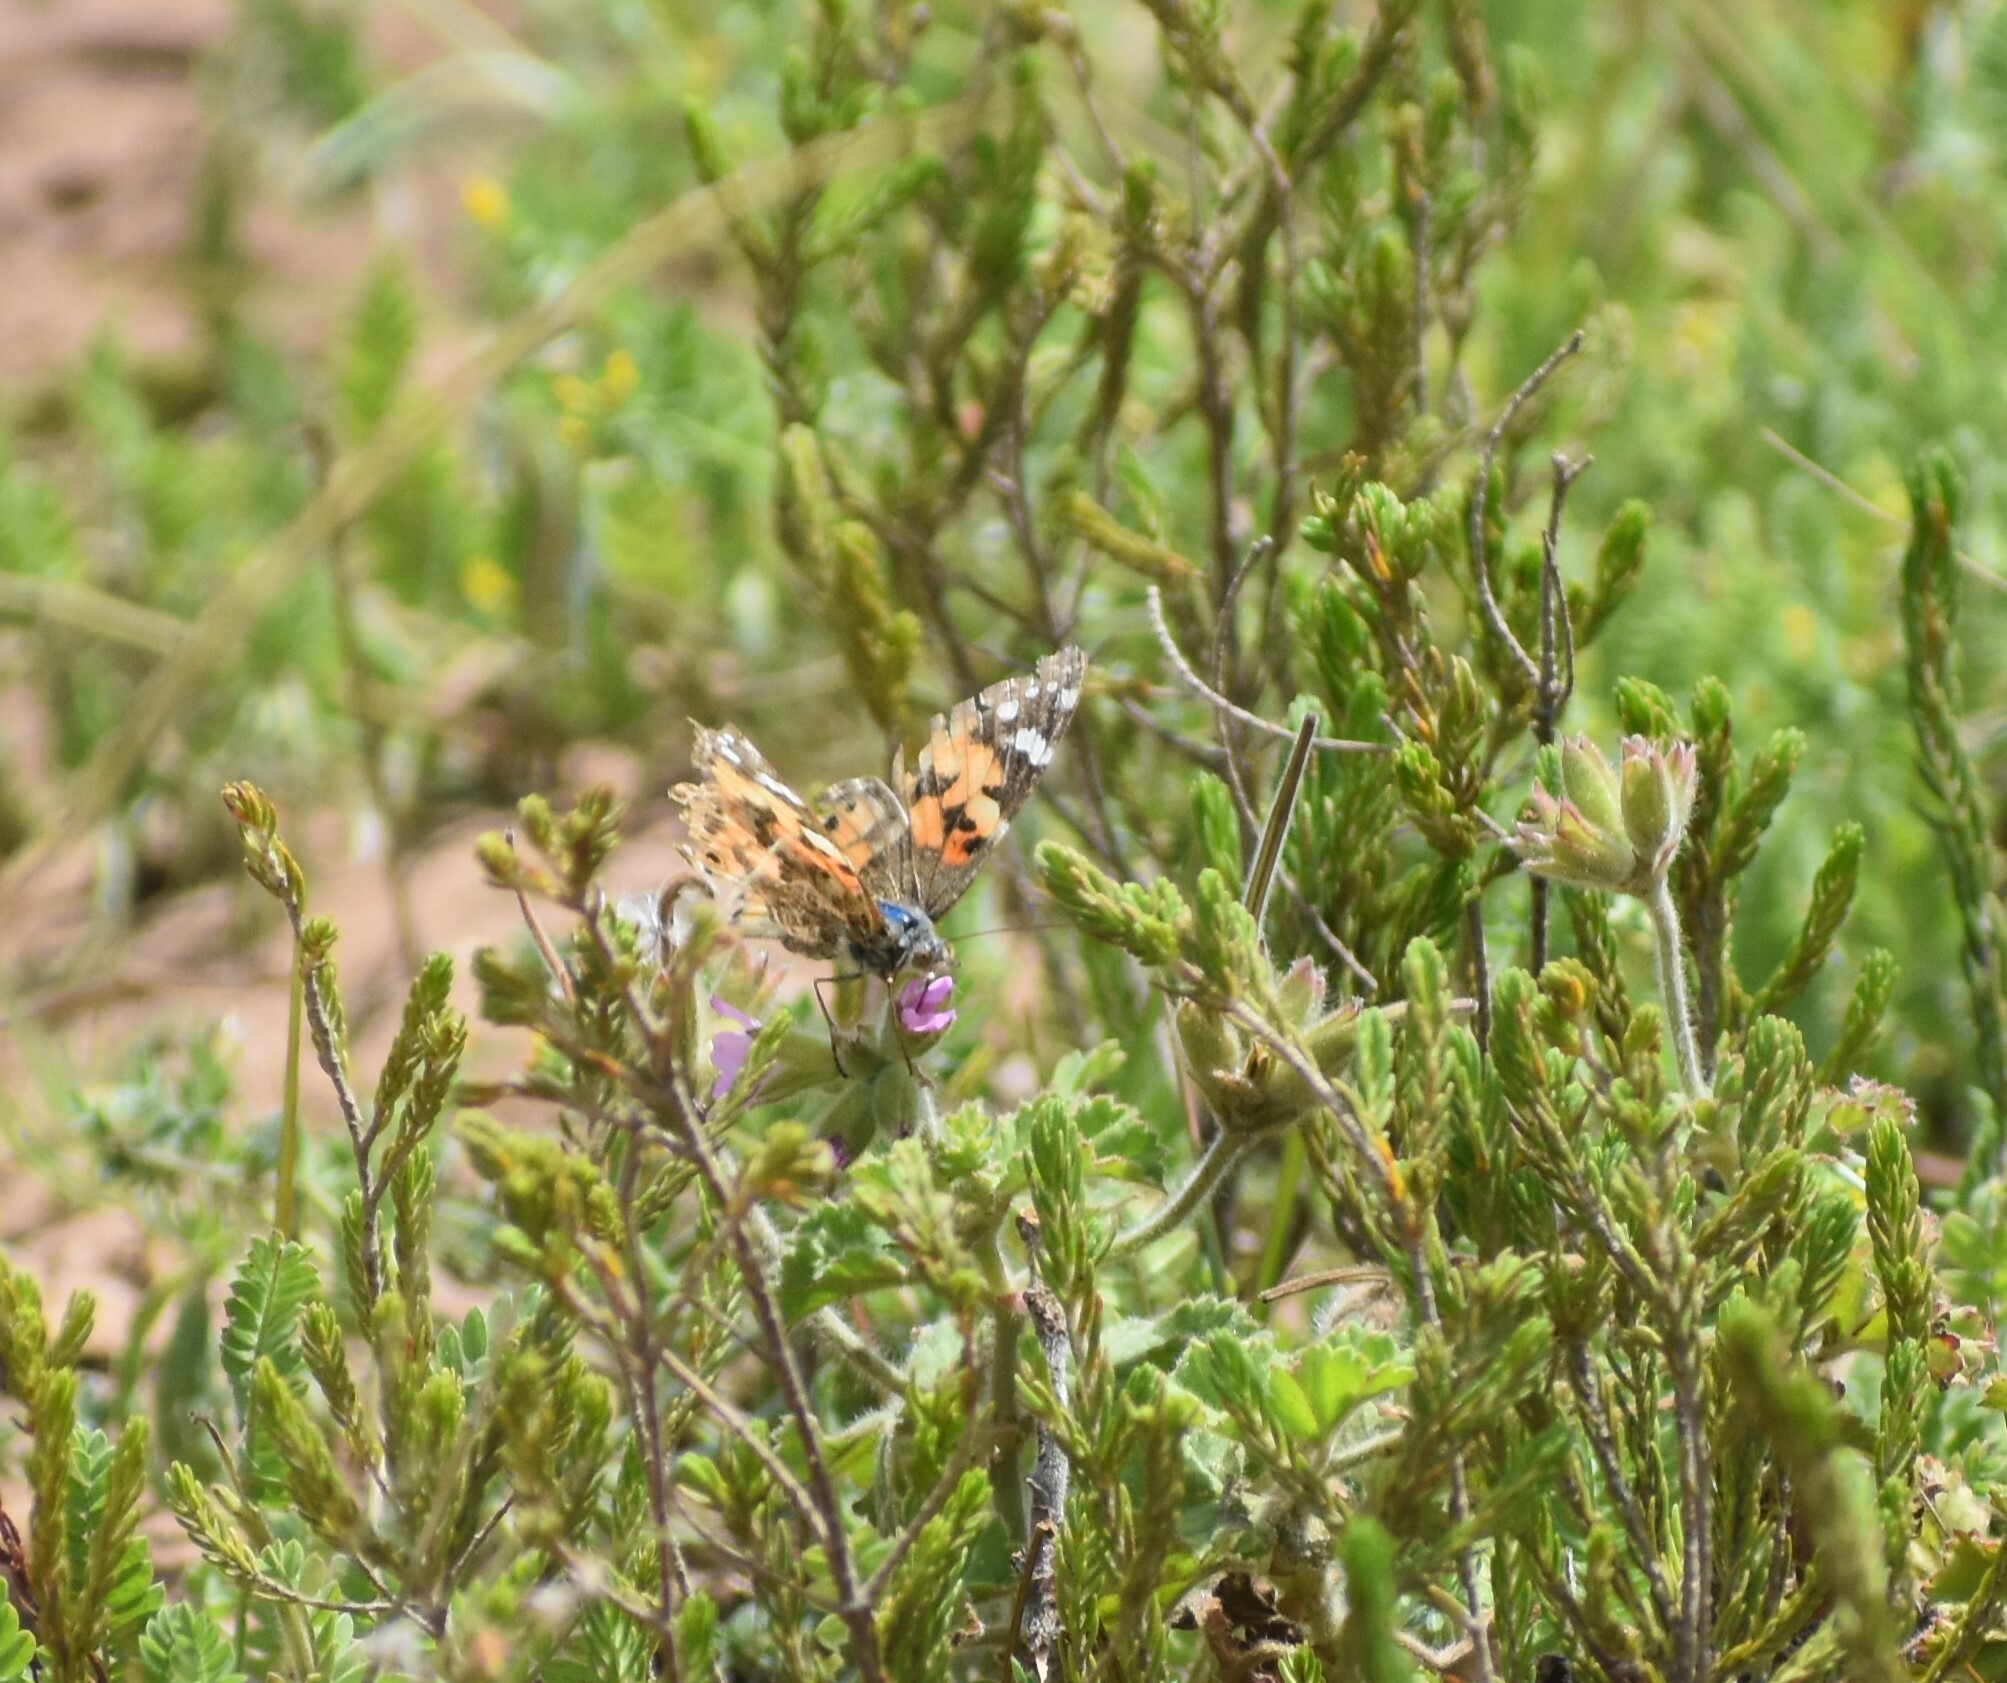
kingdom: Animalia
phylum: Arthropoda
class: Insecta
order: Lepidoptera
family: Nymphalidae
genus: Vanessa
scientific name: Vanessa cardui
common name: Painted lady
